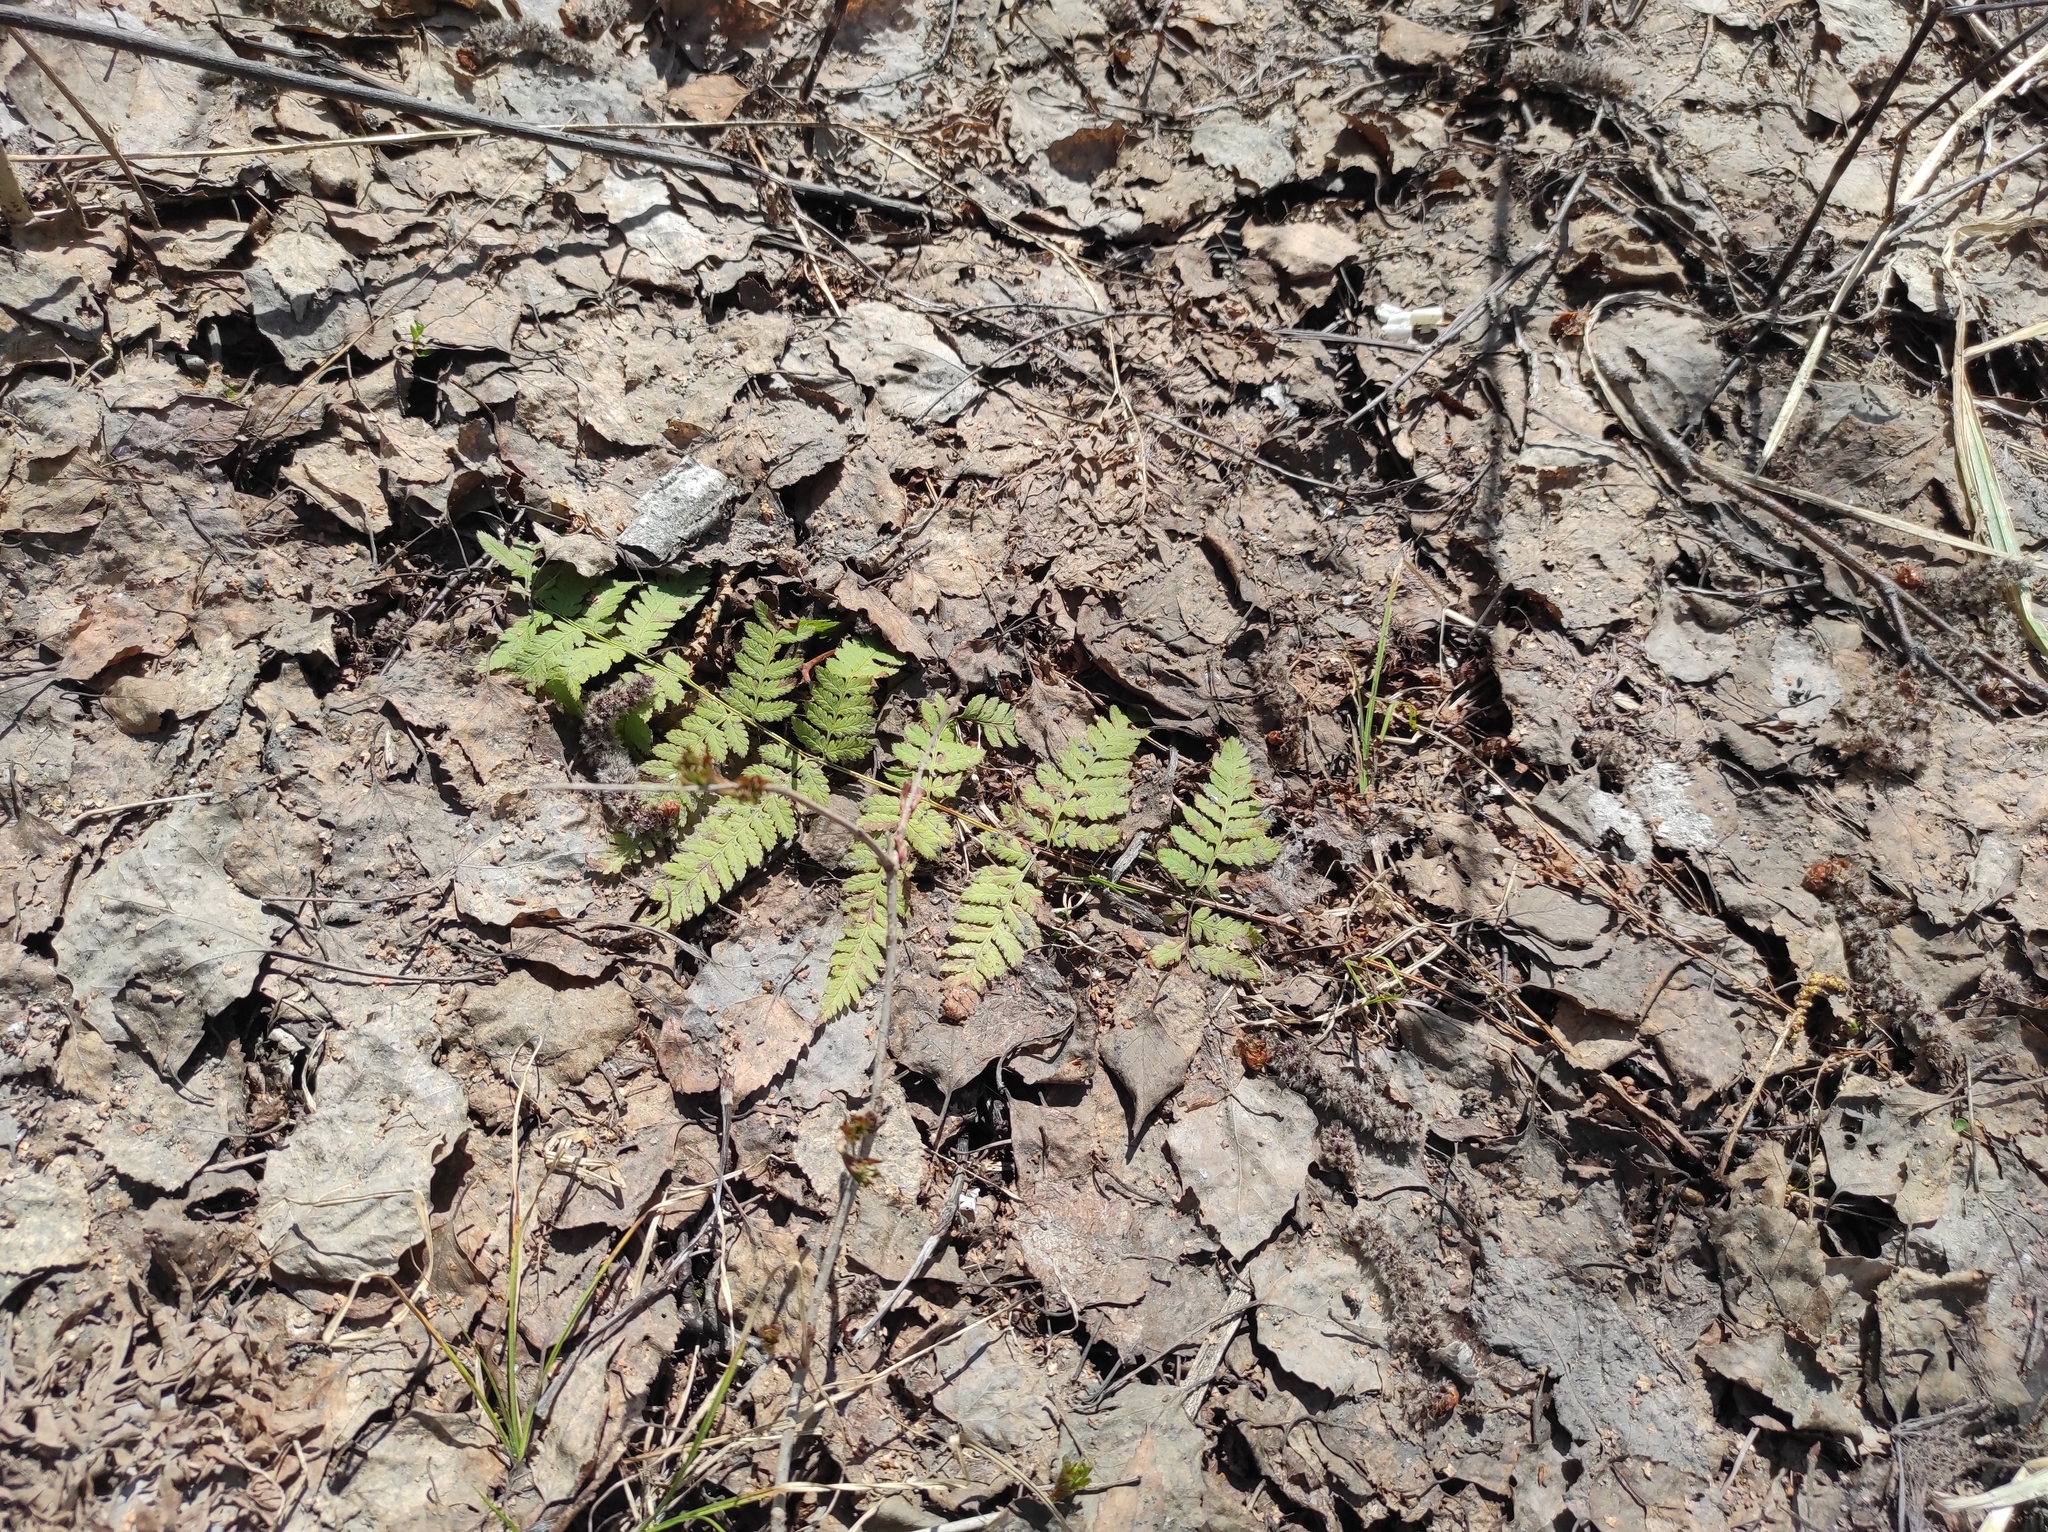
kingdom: Plantae
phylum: Tracheophyta
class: Polypodiopsida
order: Polypodiales
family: Dryopteridaceae
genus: Dryopteris
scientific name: Dryopteris carthusiana
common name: Narrow buckler-fern
